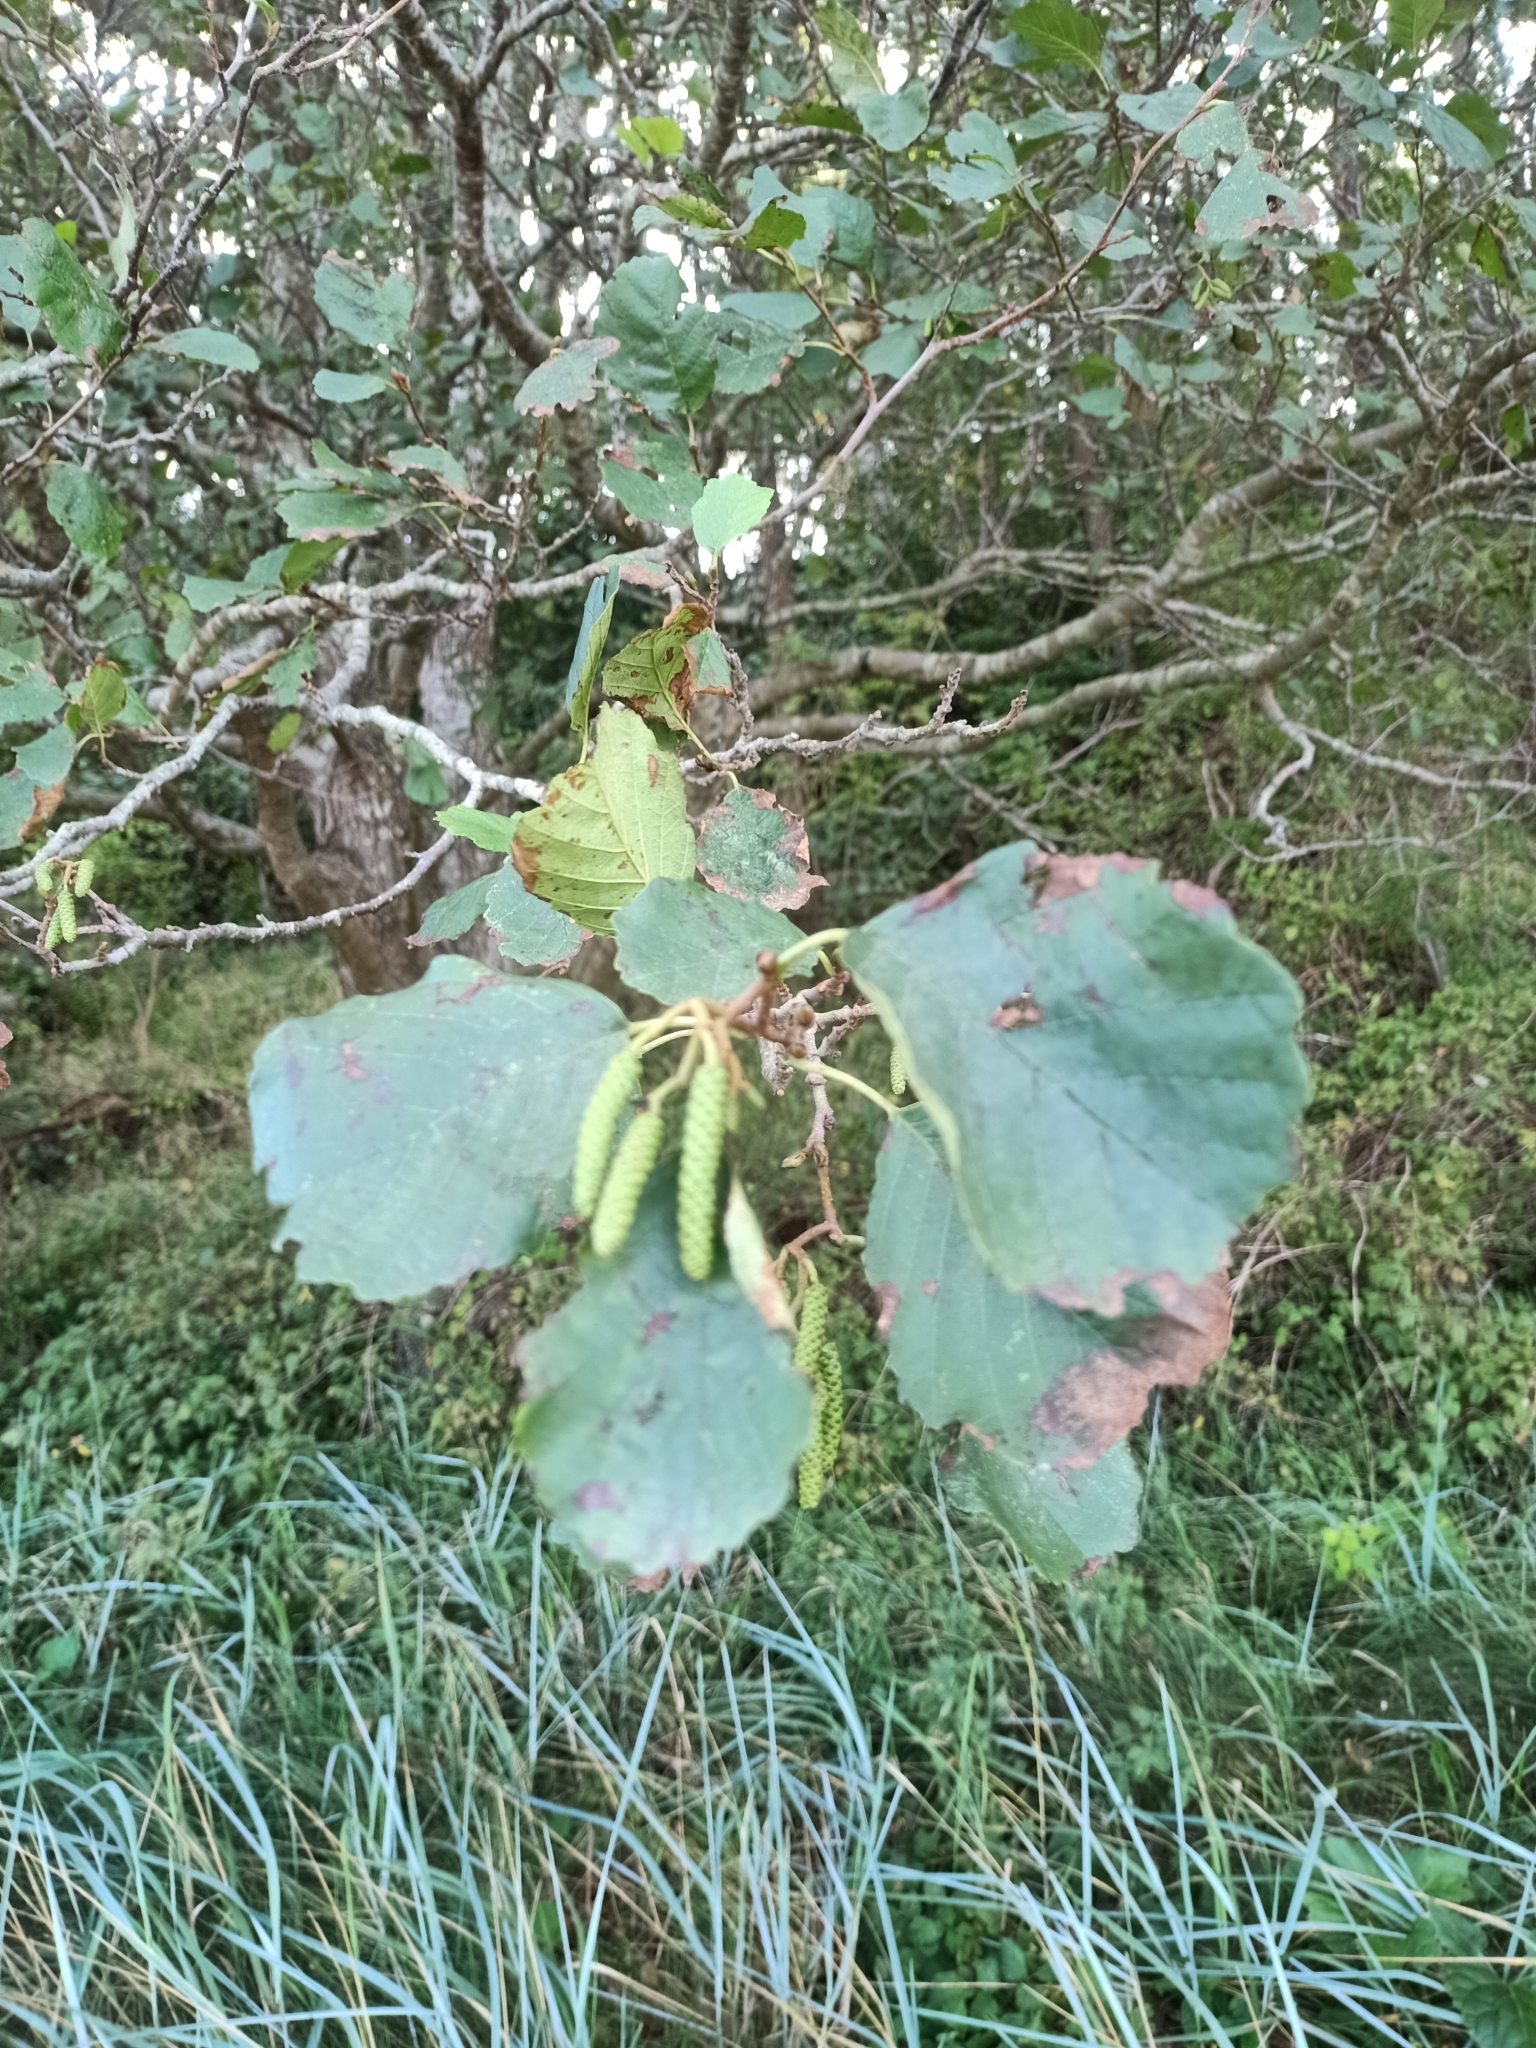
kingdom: Plantae
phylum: Tracheophyta
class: Magnoliopsida
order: Fagales
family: Betulaceae
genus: Alnus
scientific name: Alnus glutinosa
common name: Black alder
